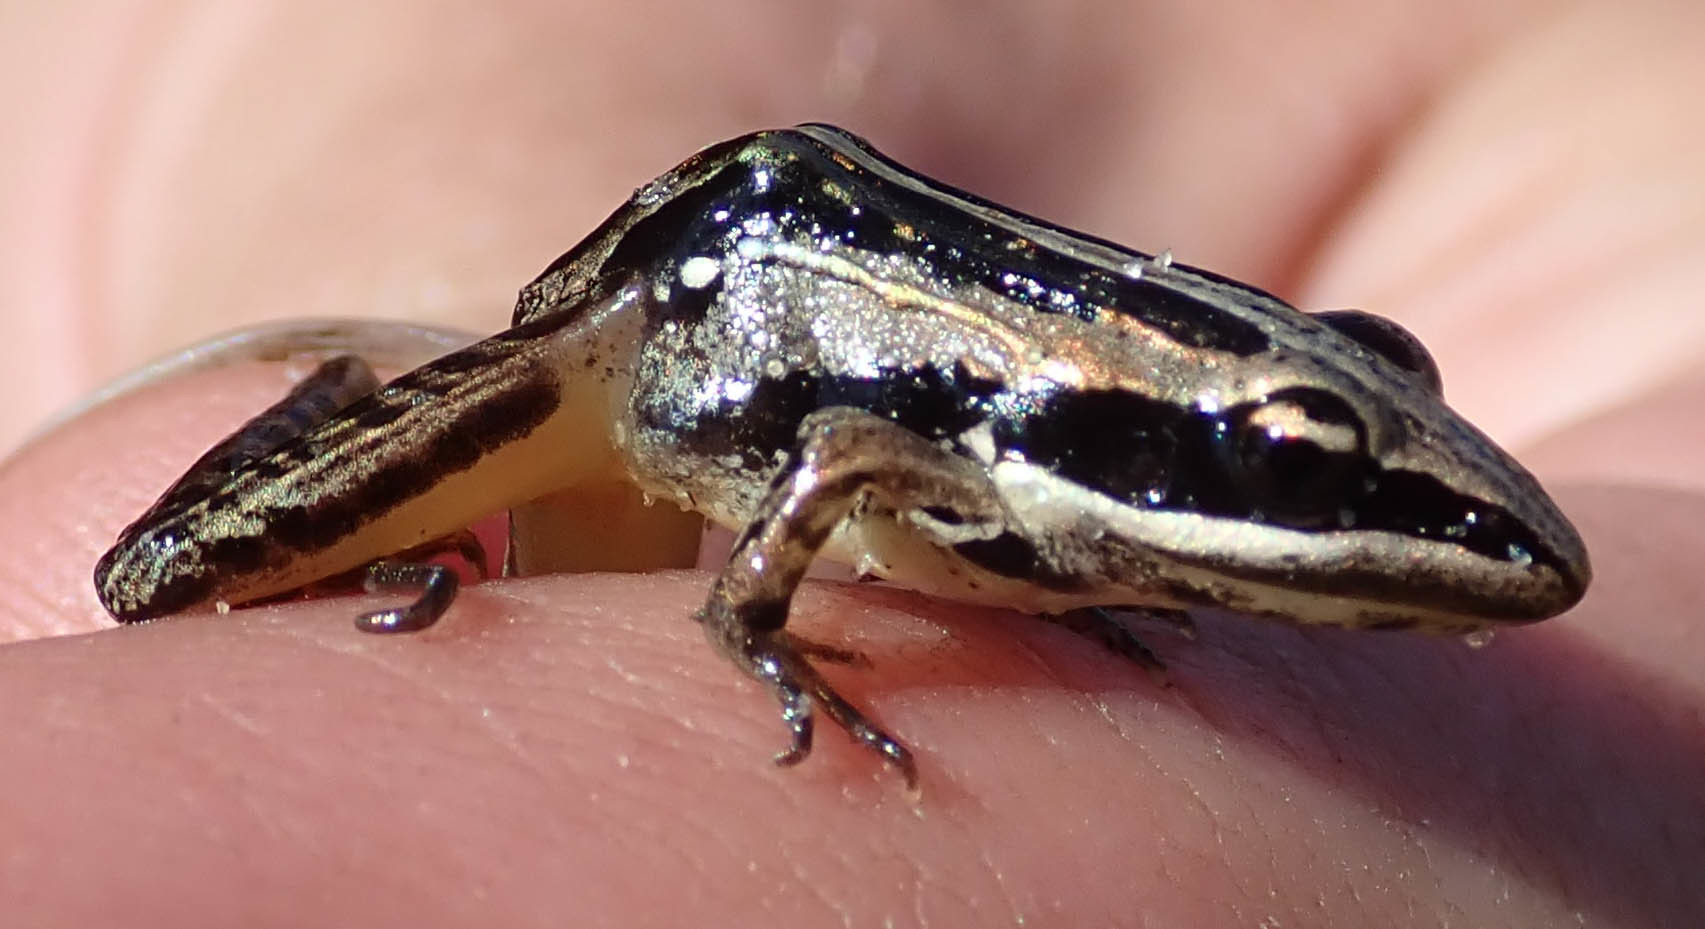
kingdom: Animalia
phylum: Chordata
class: Amphibia
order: Anura
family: Ptychadenidae
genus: Ptychadena
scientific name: Ptychadena taenioscelis
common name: Lukula grassland frog
